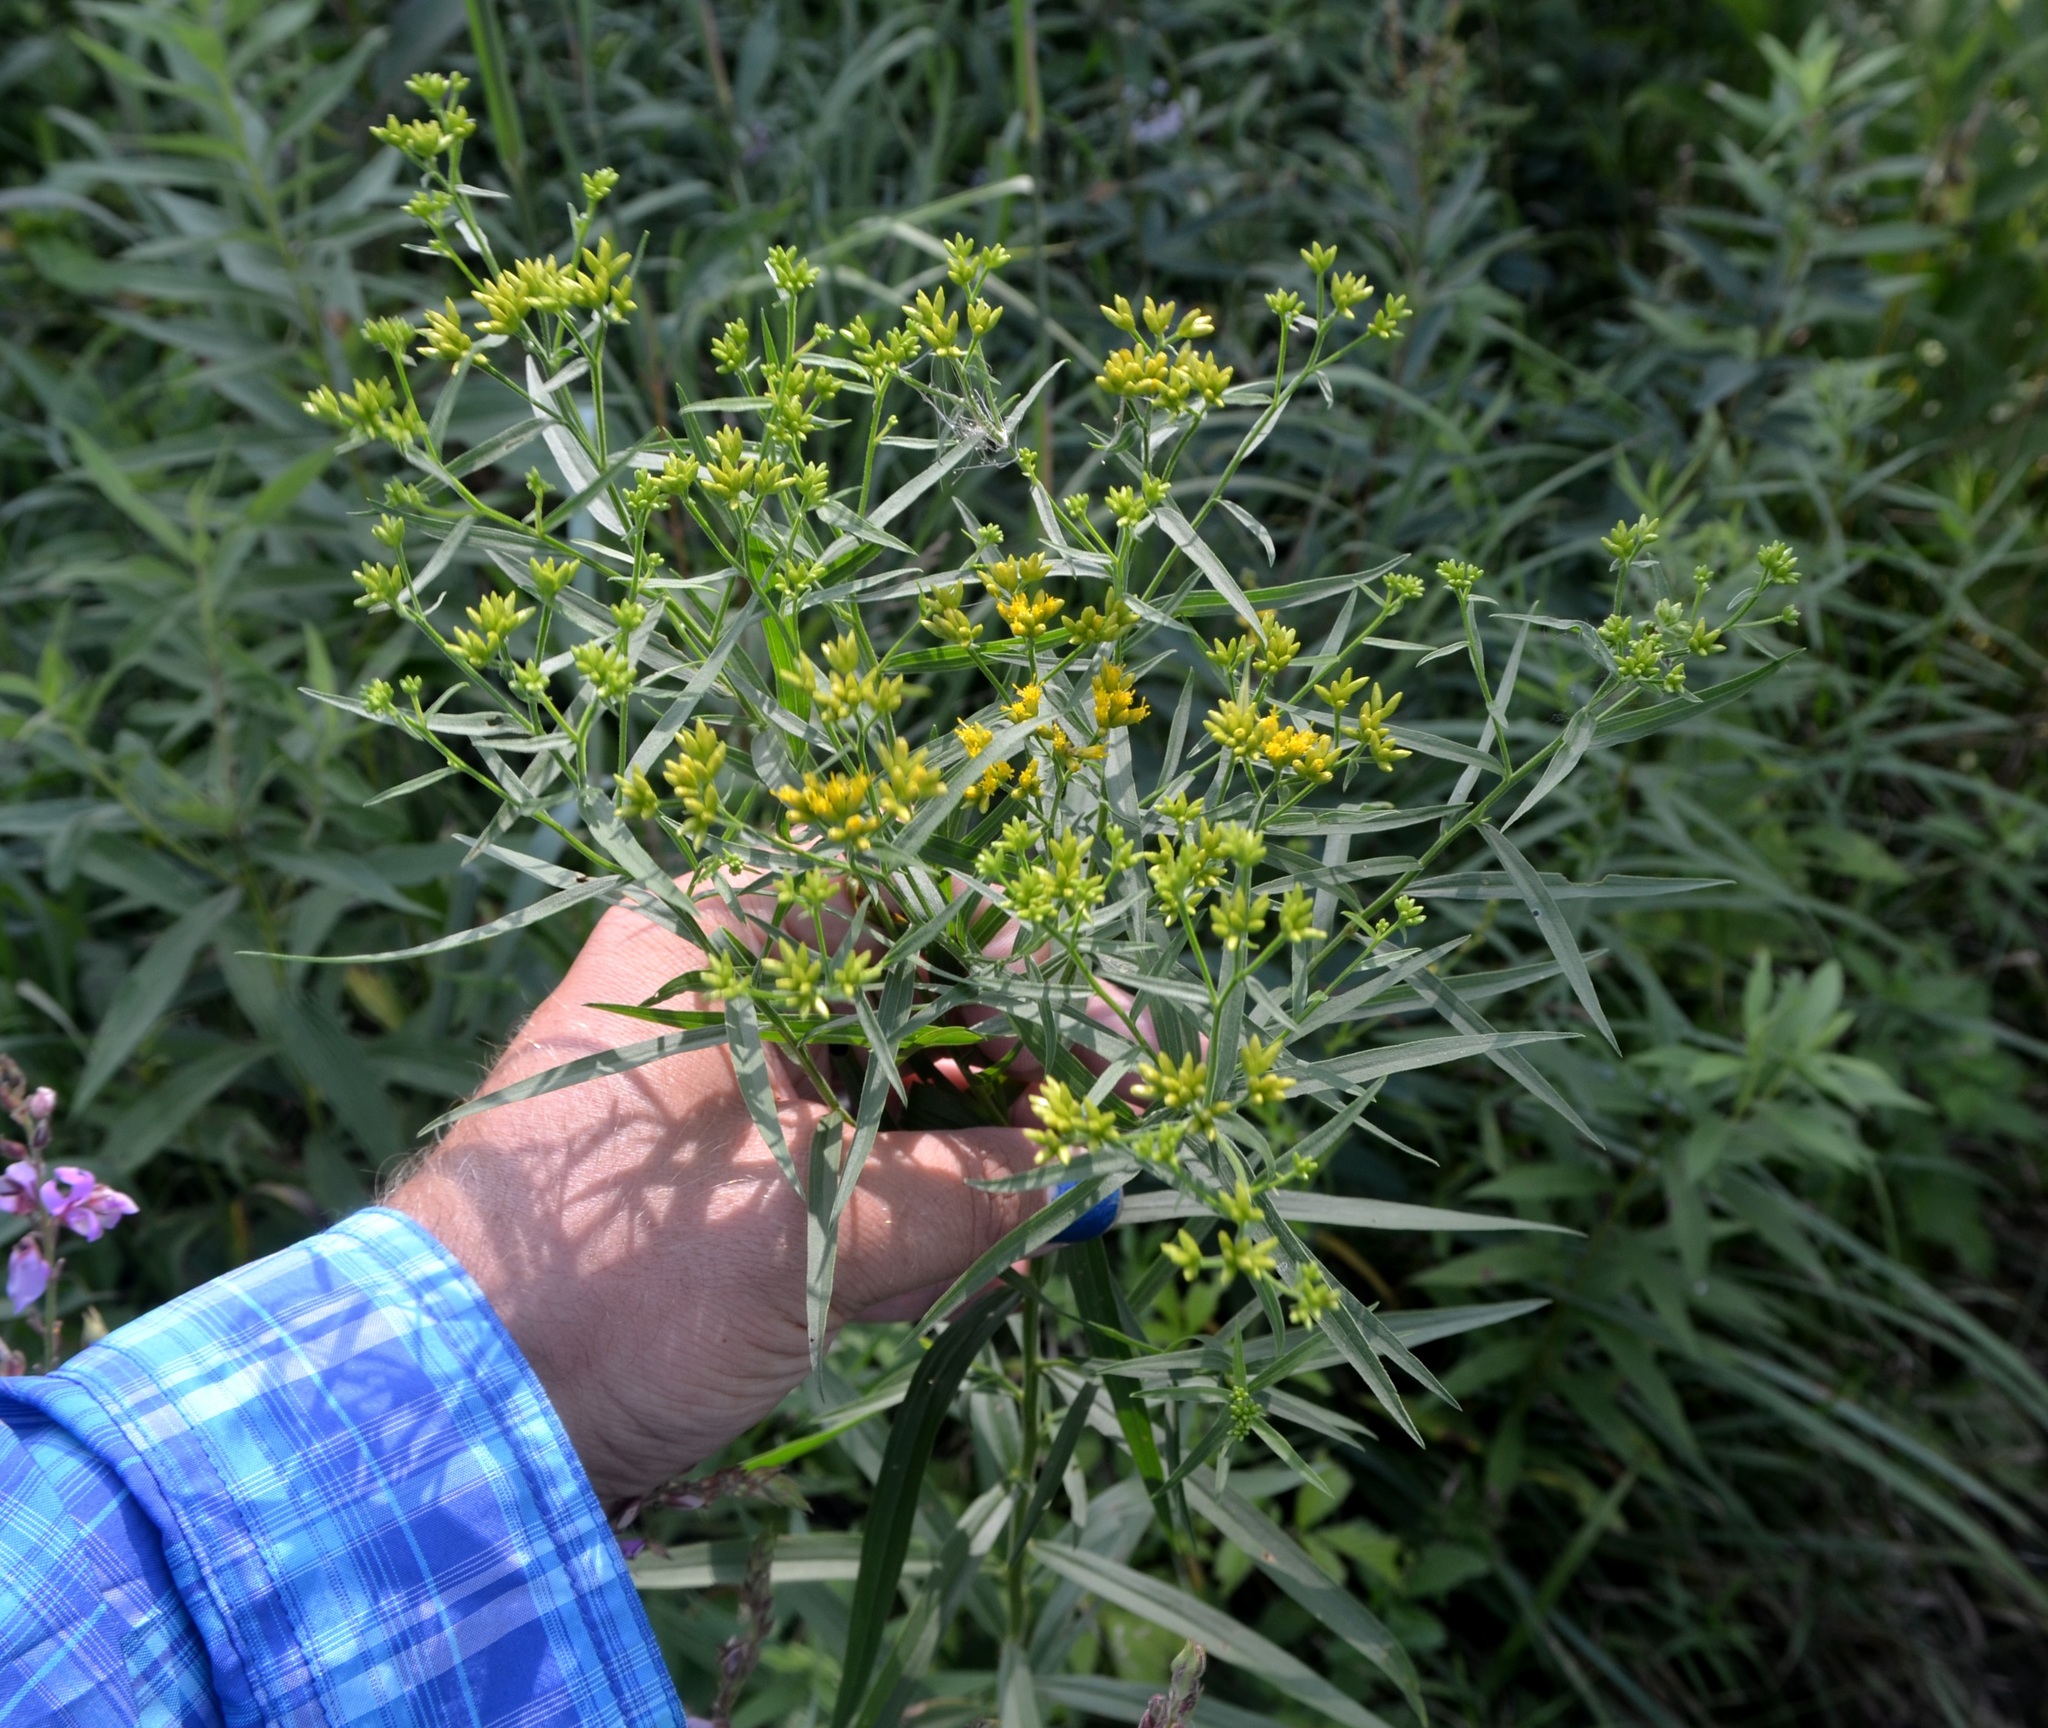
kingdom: Plantae
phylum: Tracheophyta
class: Magnoliopsida
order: Asterales
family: Asteraceae
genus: Euthamia
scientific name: Euthamia graminifolia
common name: Common goldentop
